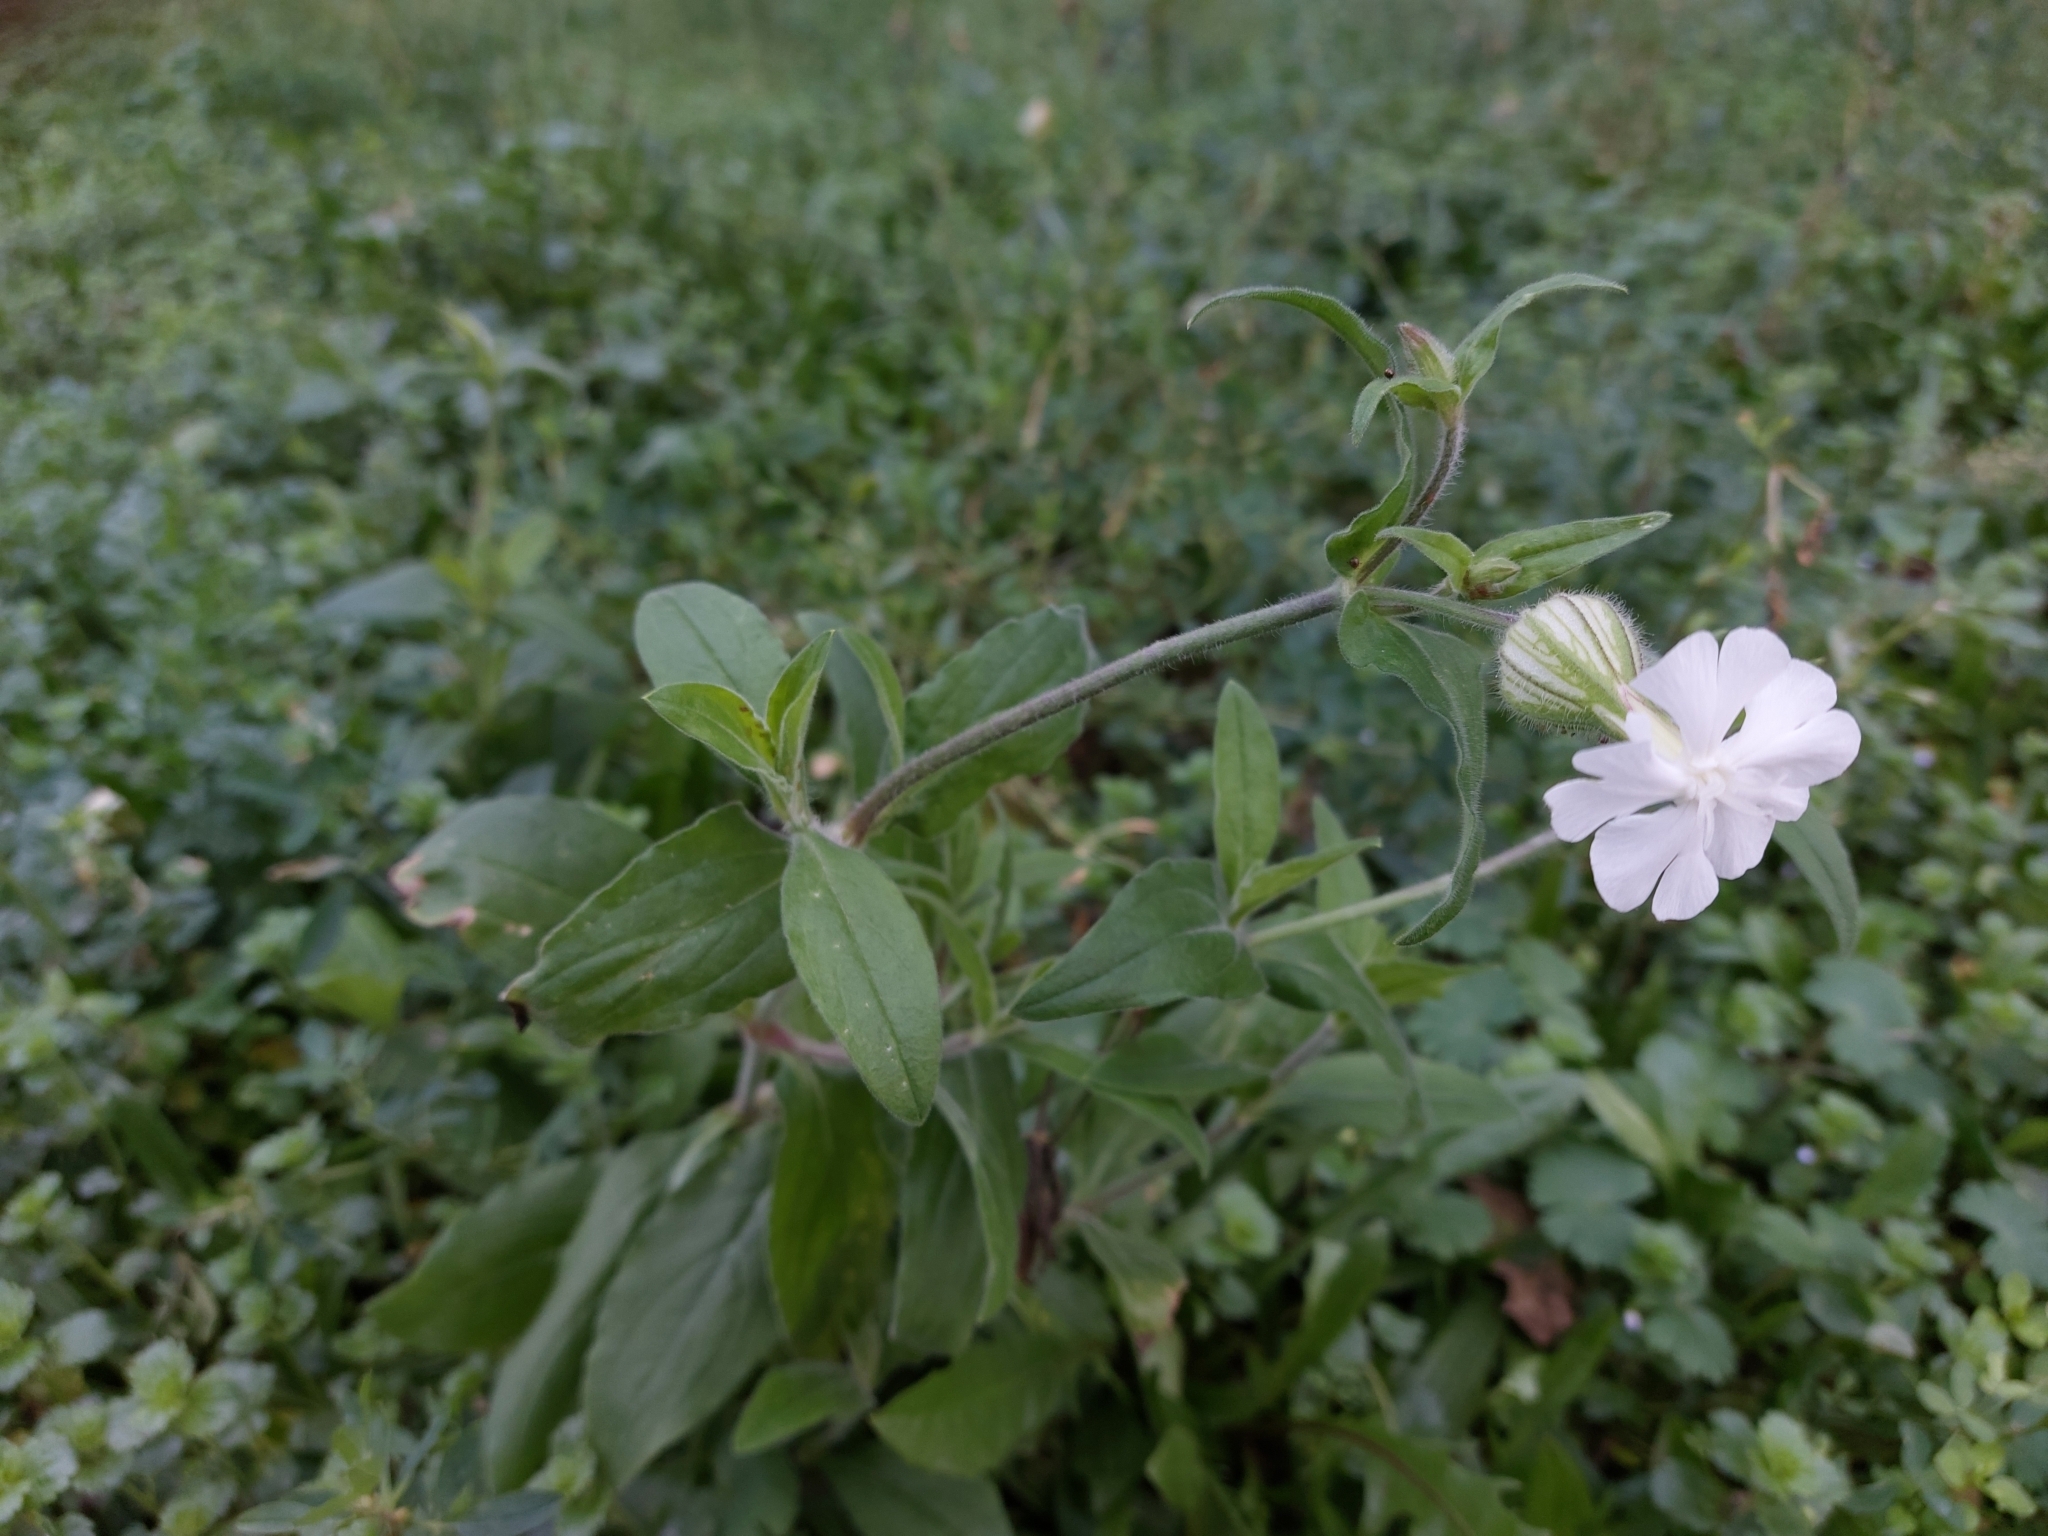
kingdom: Plantae
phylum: Tracheophyta
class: Magnoliopsida
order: Caryophyllales
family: Caryophyllaceae
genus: Silene
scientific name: Silene latifolia
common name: White campion
